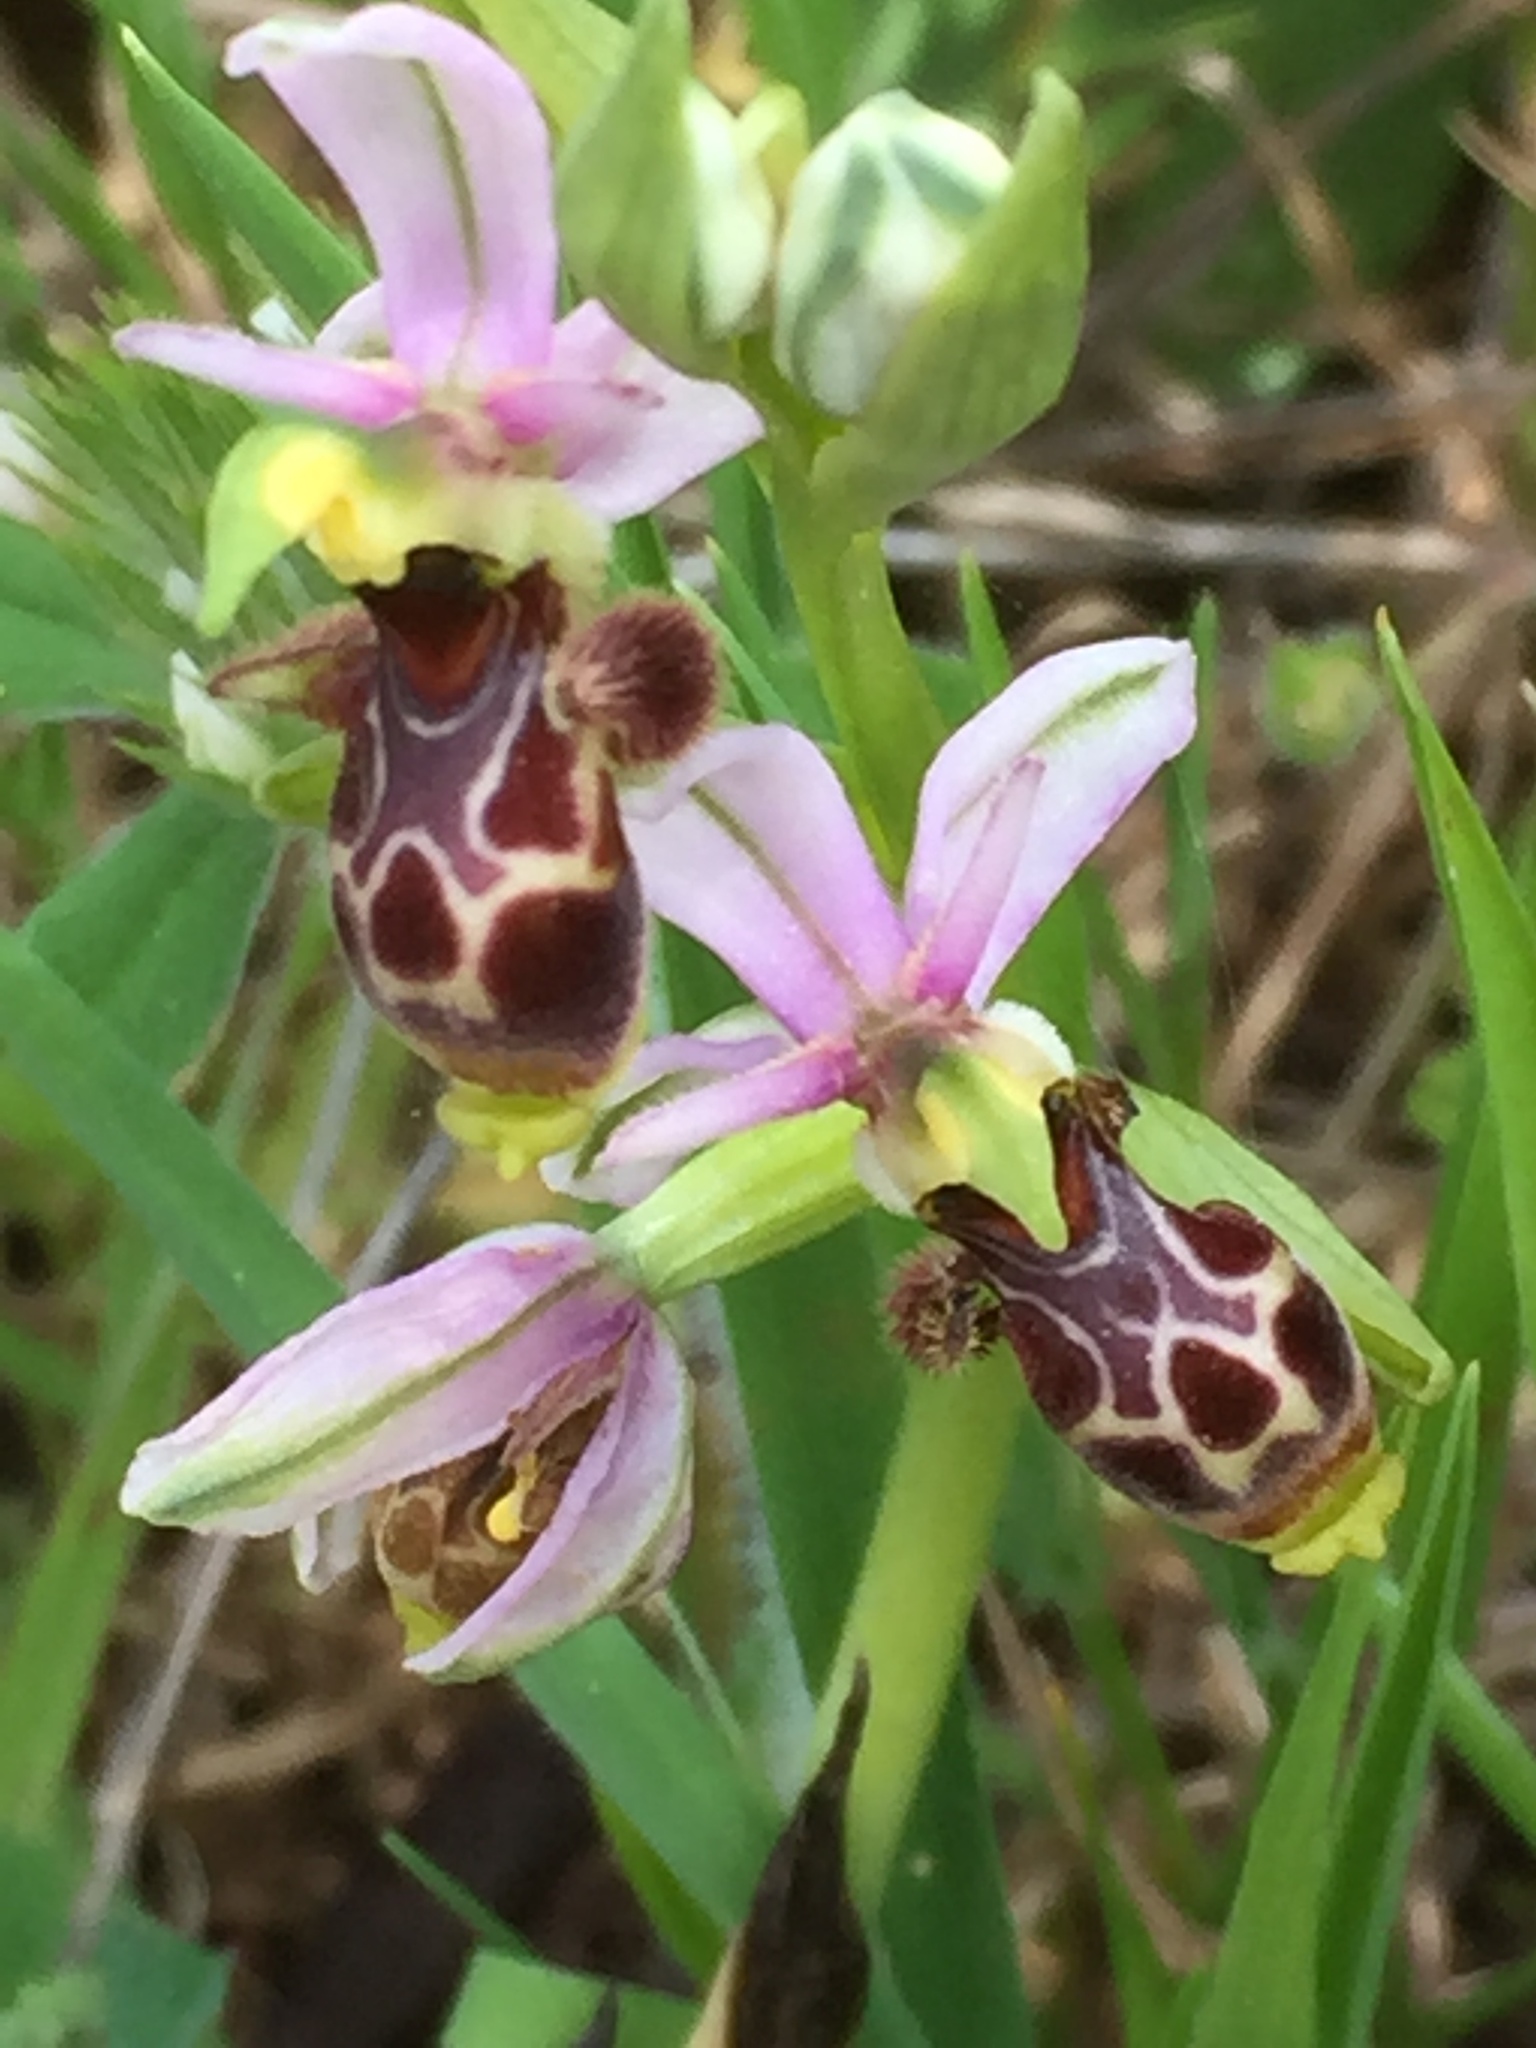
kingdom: Plantae
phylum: Tracheophyta
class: Liliopsida
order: Asparagales
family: Orchidaceae
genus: Ophrys
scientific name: Ophrys scolopax
